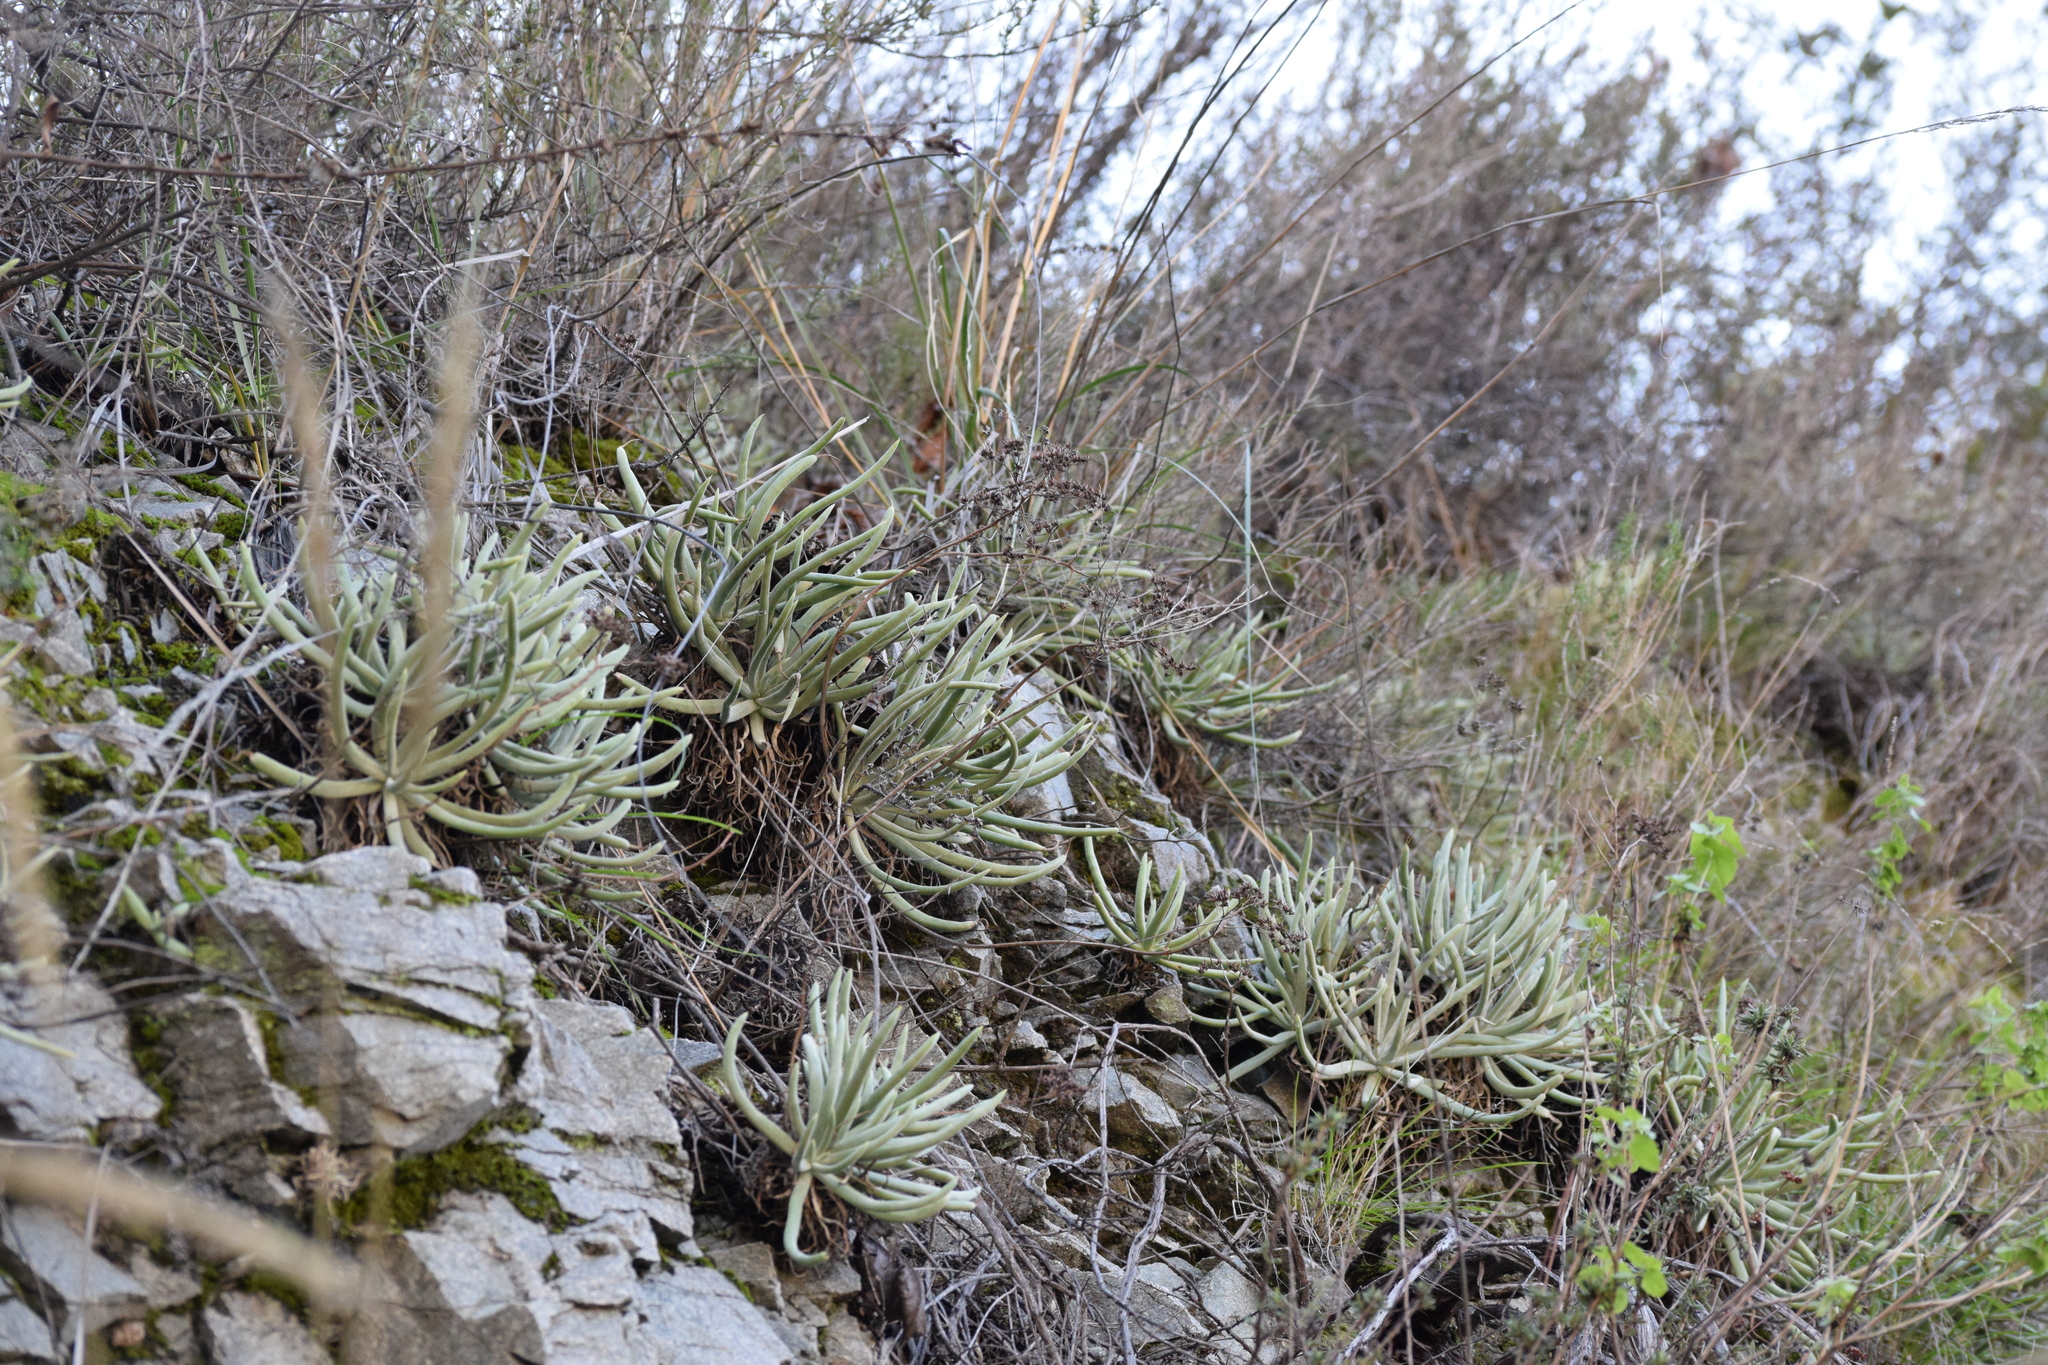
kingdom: Plantae
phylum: Tracheophyta
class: Magnoliopsida
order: Saxifragales
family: Crassulaceae
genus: Dudleya
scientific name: Dudleya densiflora
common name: San gabriel mountains dudleya
